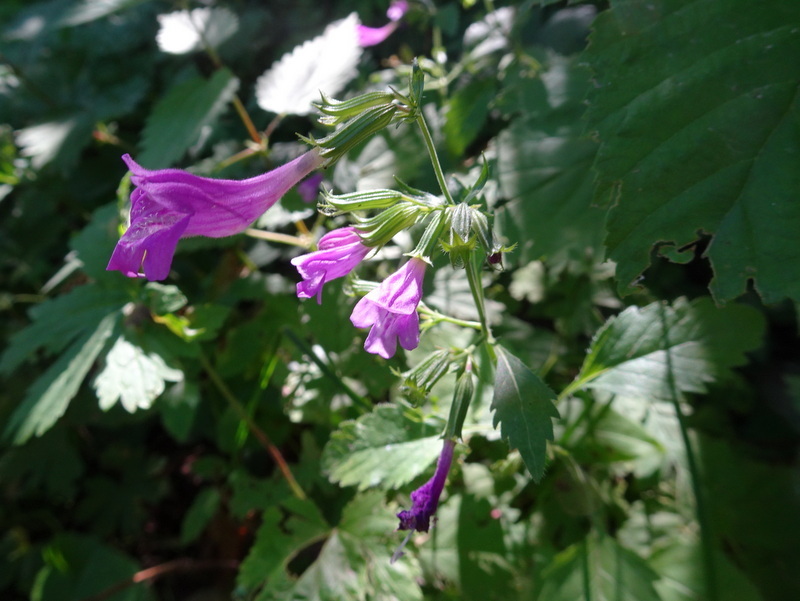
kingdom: Plantae
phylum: Tracheophyta
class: Magnoliopsida
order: Lamiales
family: Lamiaceae
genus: Clinopodium
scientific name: Clinopodium grandiflorum
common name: Greater calamint
